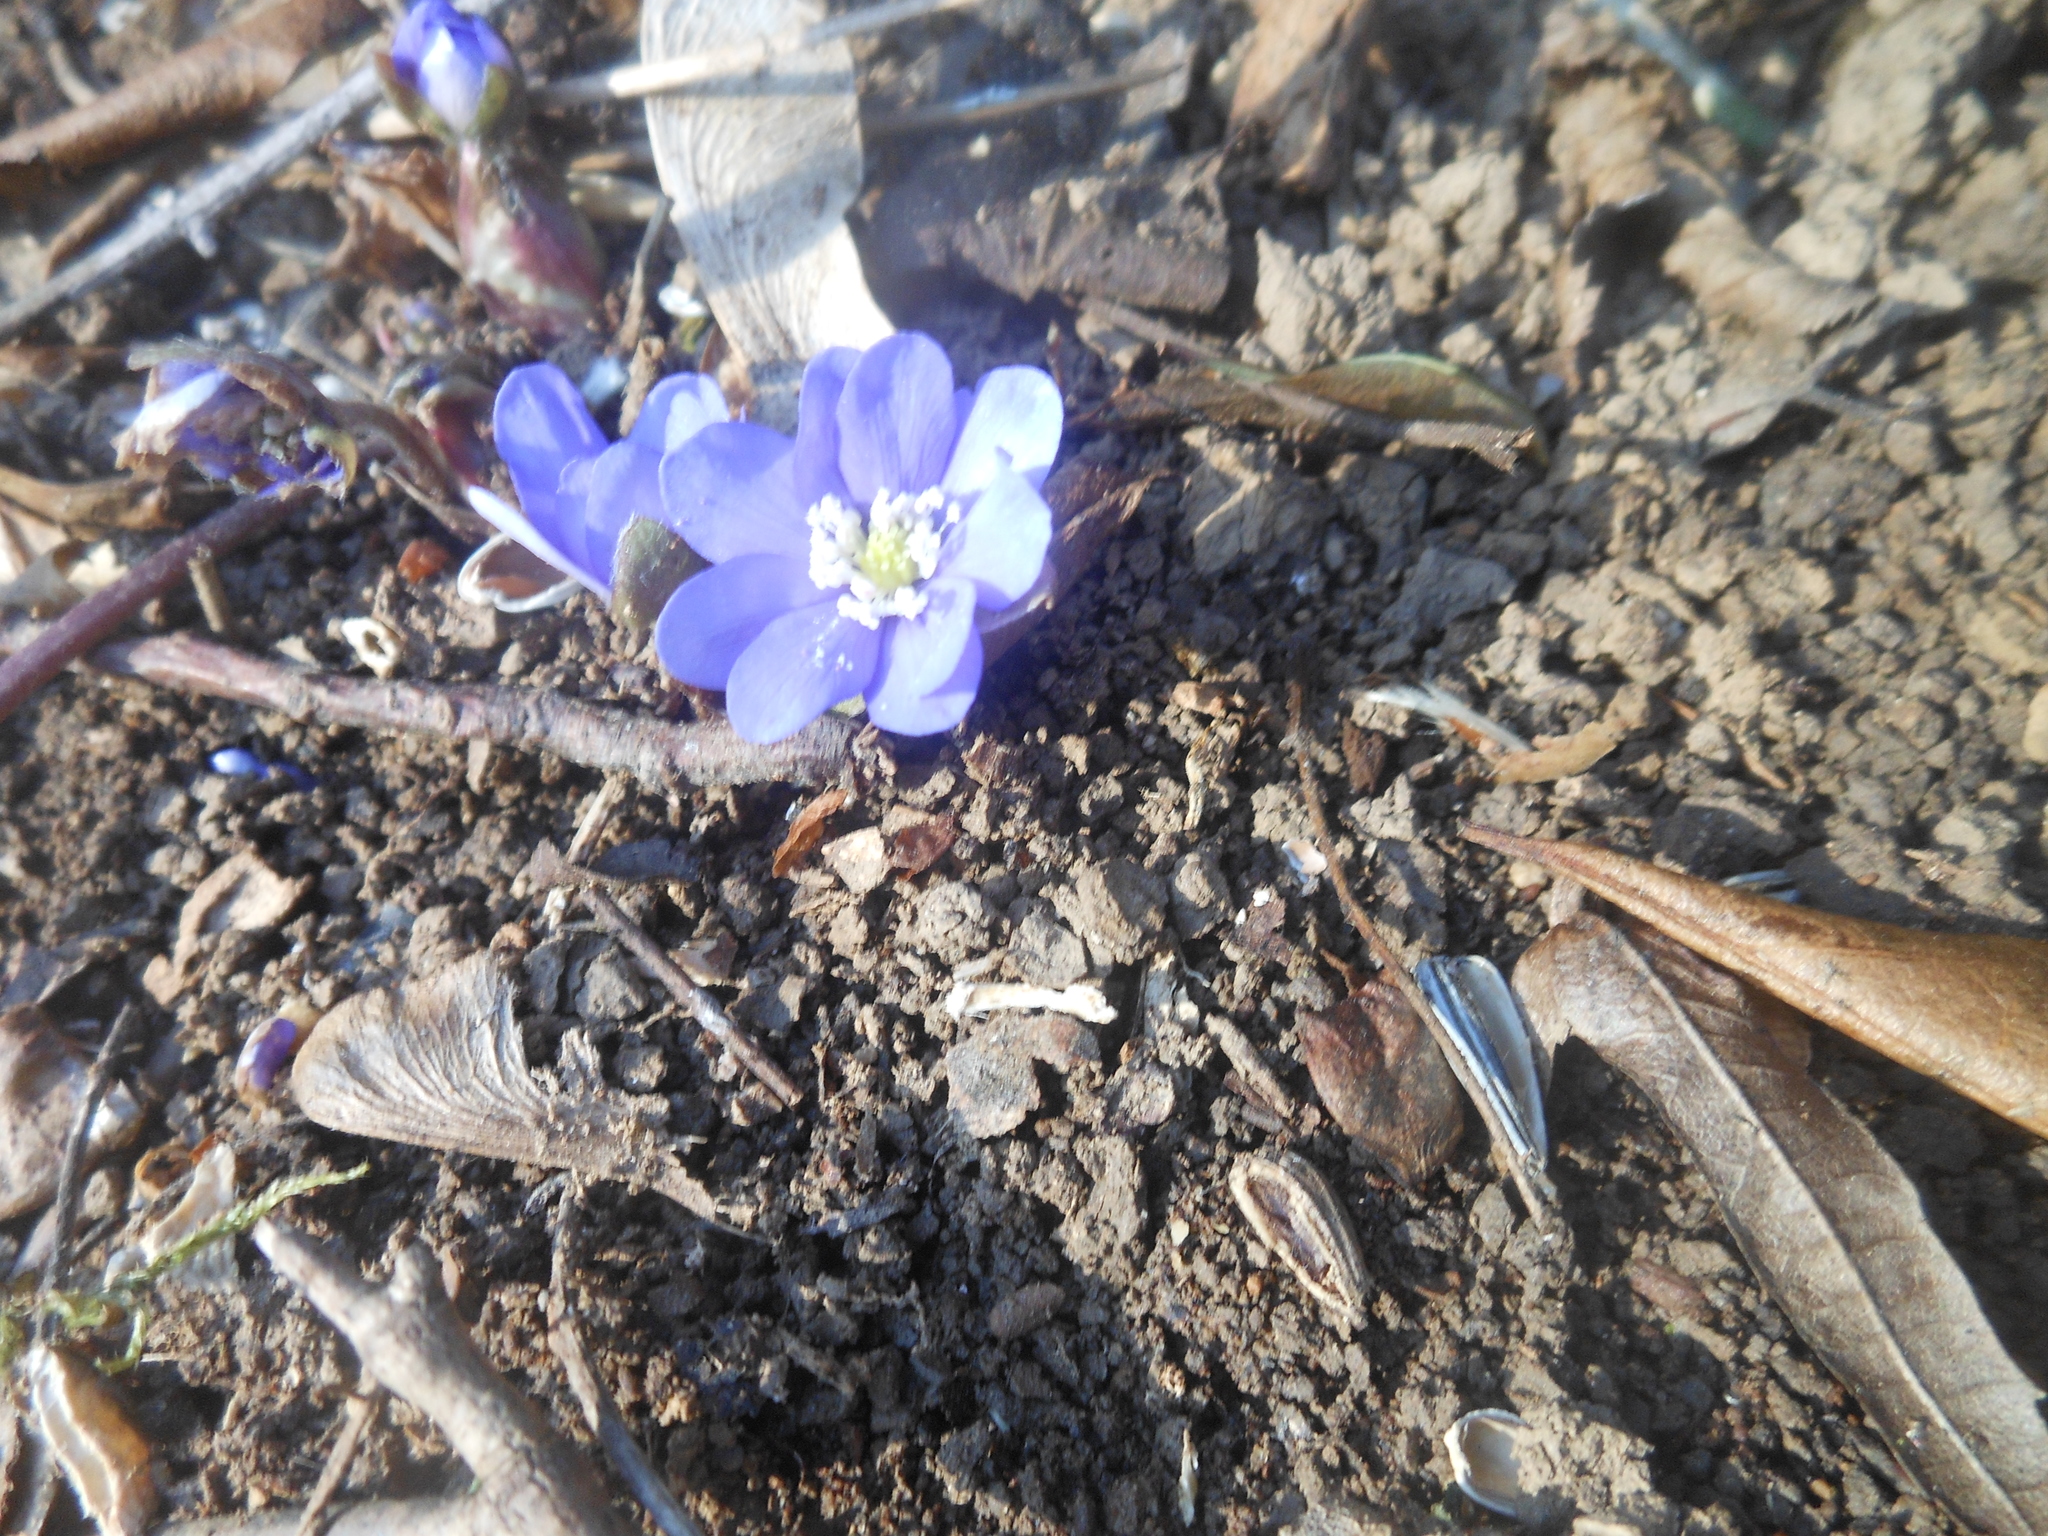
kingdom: Plantae
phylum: Tracheophyta
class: Magnoliopsida
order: Ranunculales
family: Ranunculaceae
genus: Hepatica
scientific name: Hepatica nobilis
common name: Liverleaf
